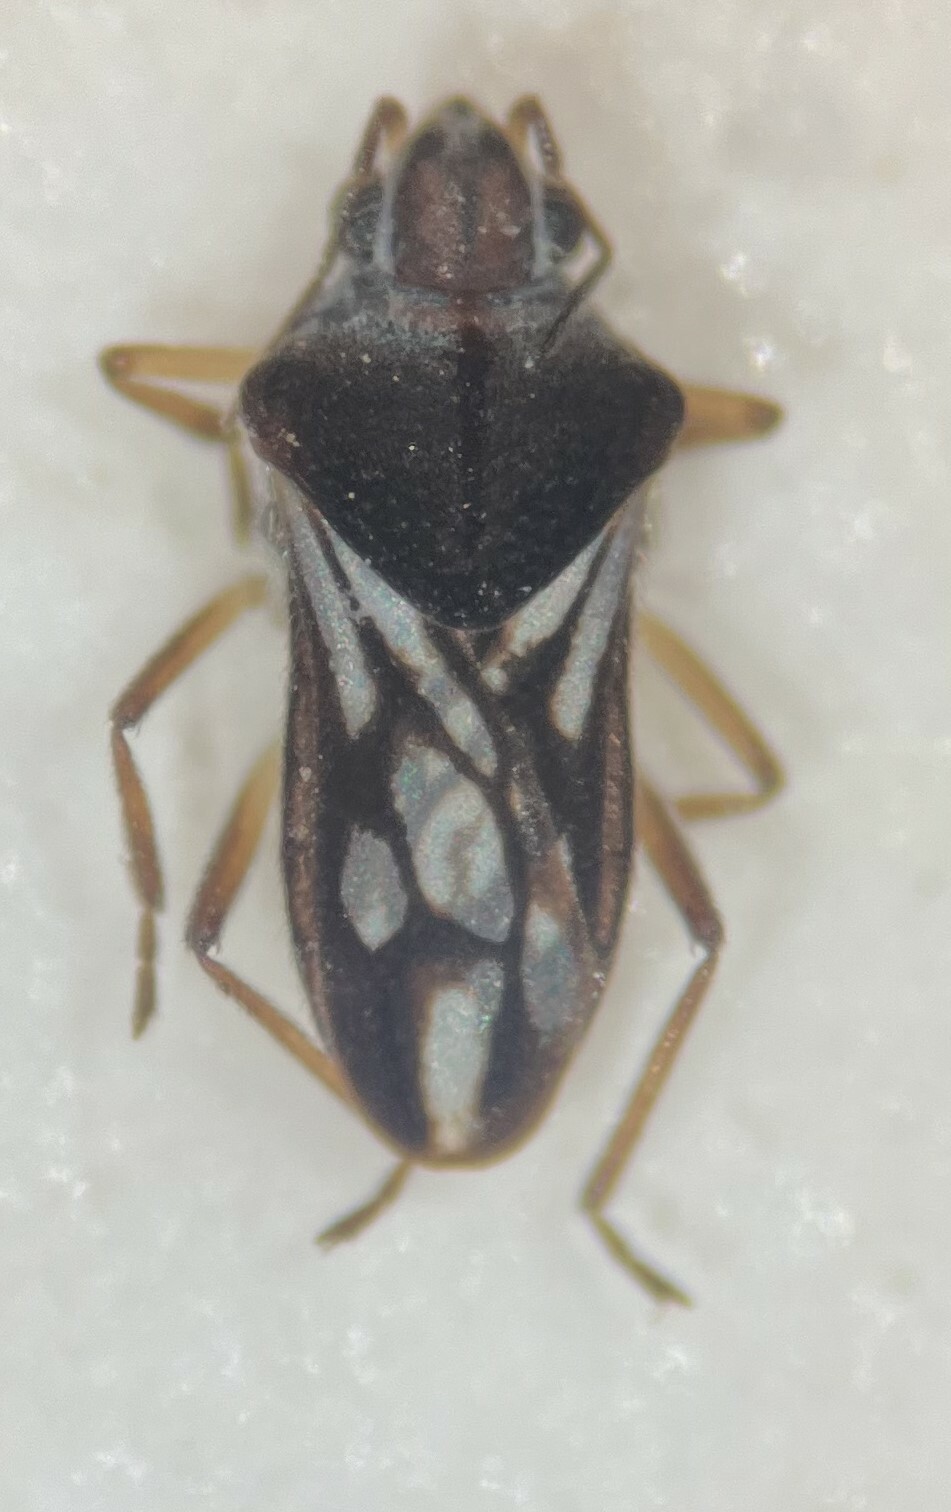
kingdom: Animalia
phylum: Arthropoda
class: Insecta
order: Hemiptera
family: Veliidae
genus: Microvelia
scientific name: Microvelia hinei
